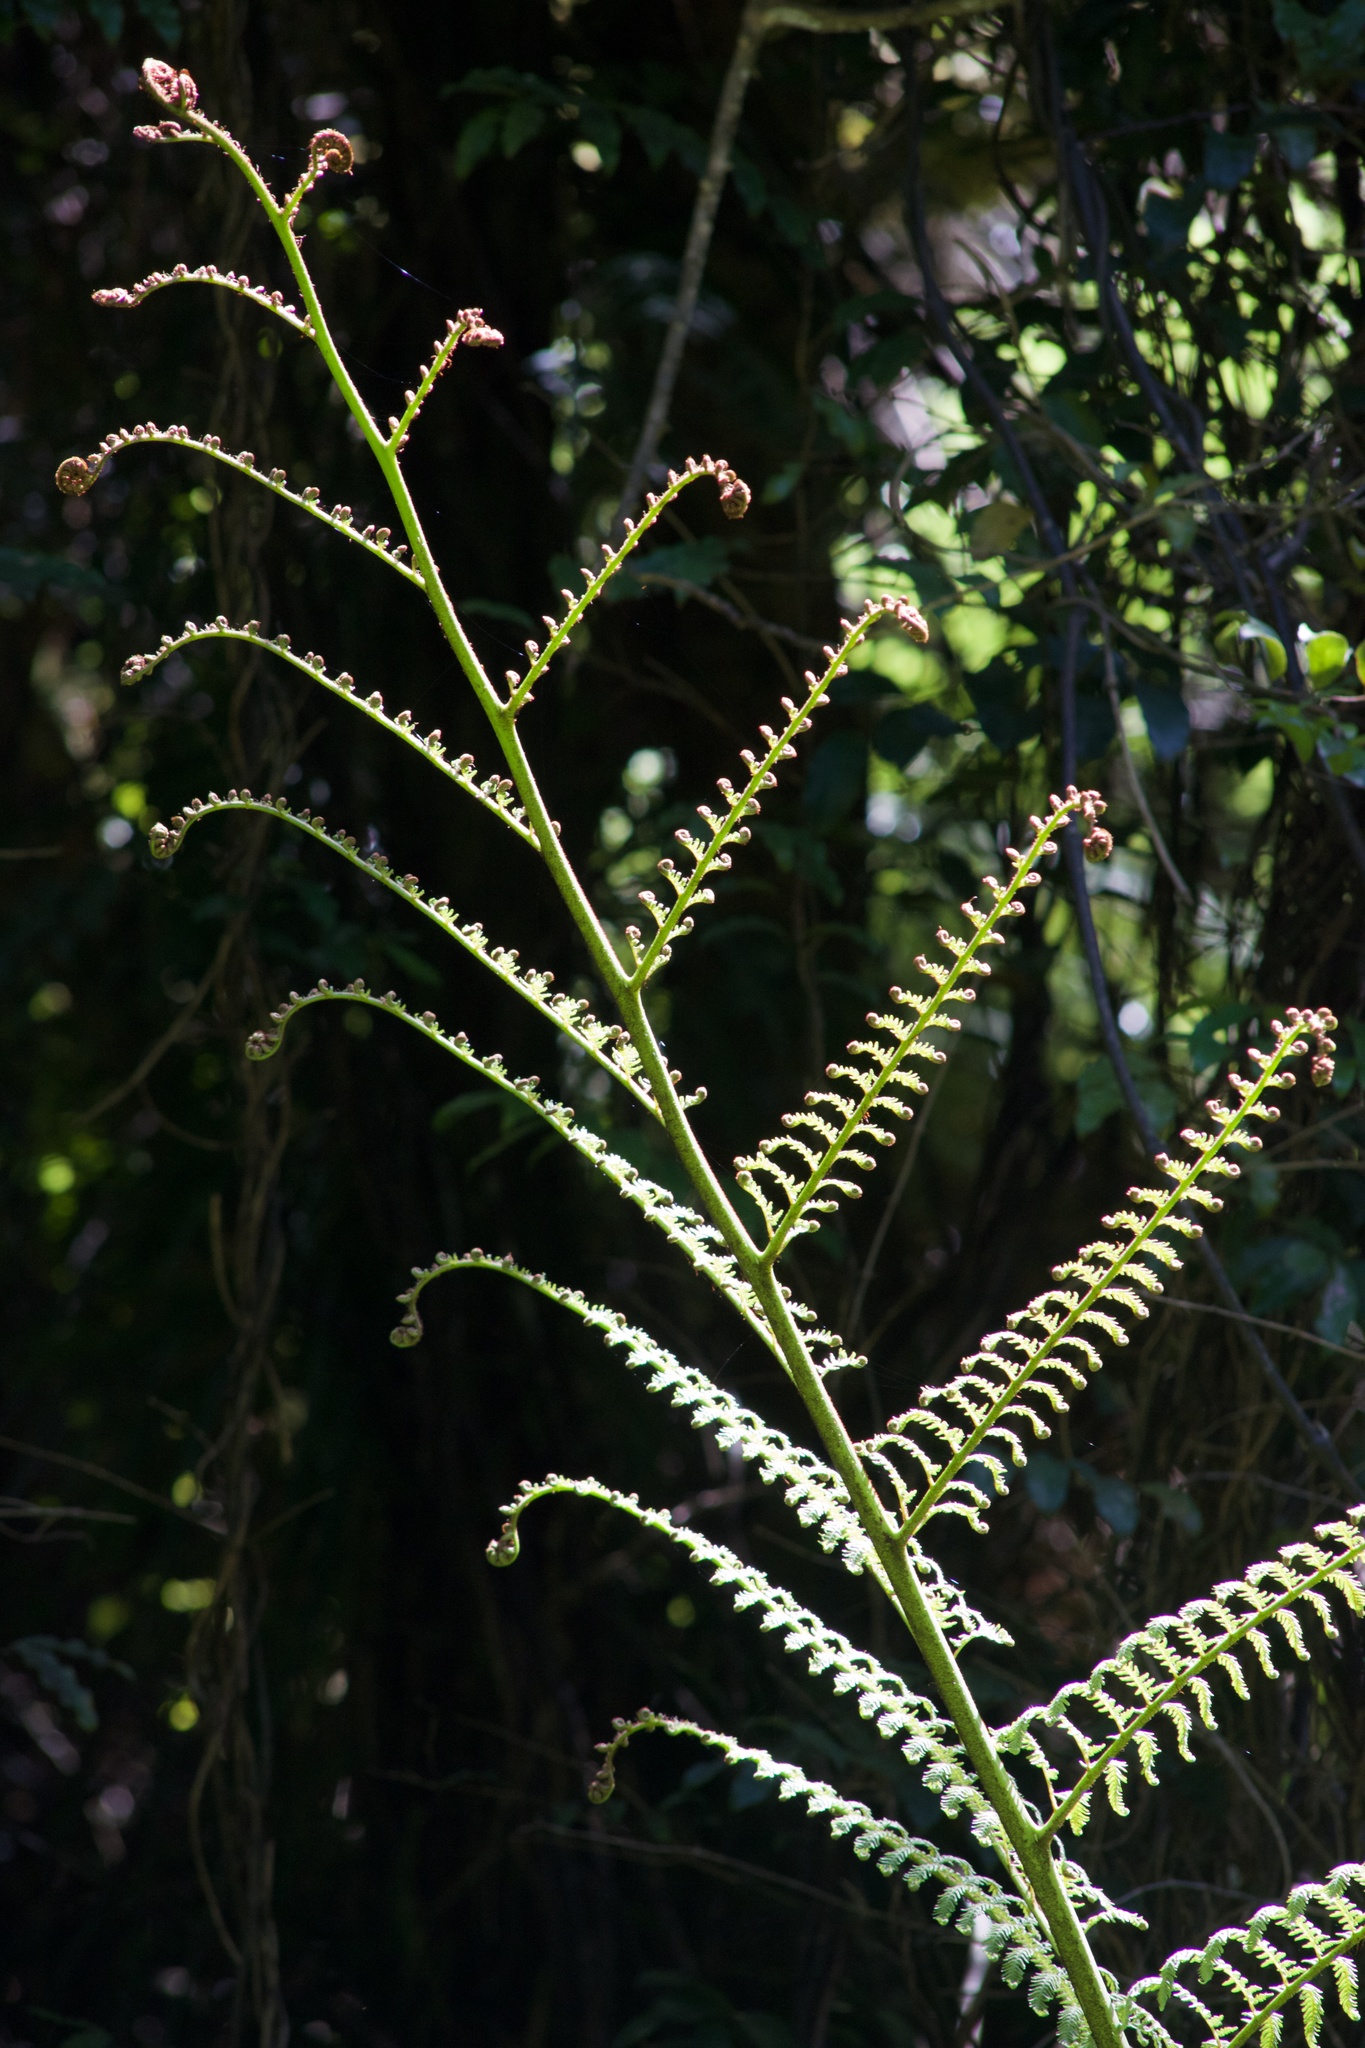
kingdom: Plantae
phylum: Tracheophyta
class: Polypodiopsida
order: Cyatheales
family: Cyatheaceae
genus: Sphaeropteris
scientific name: Sphaeropteris medullaris
